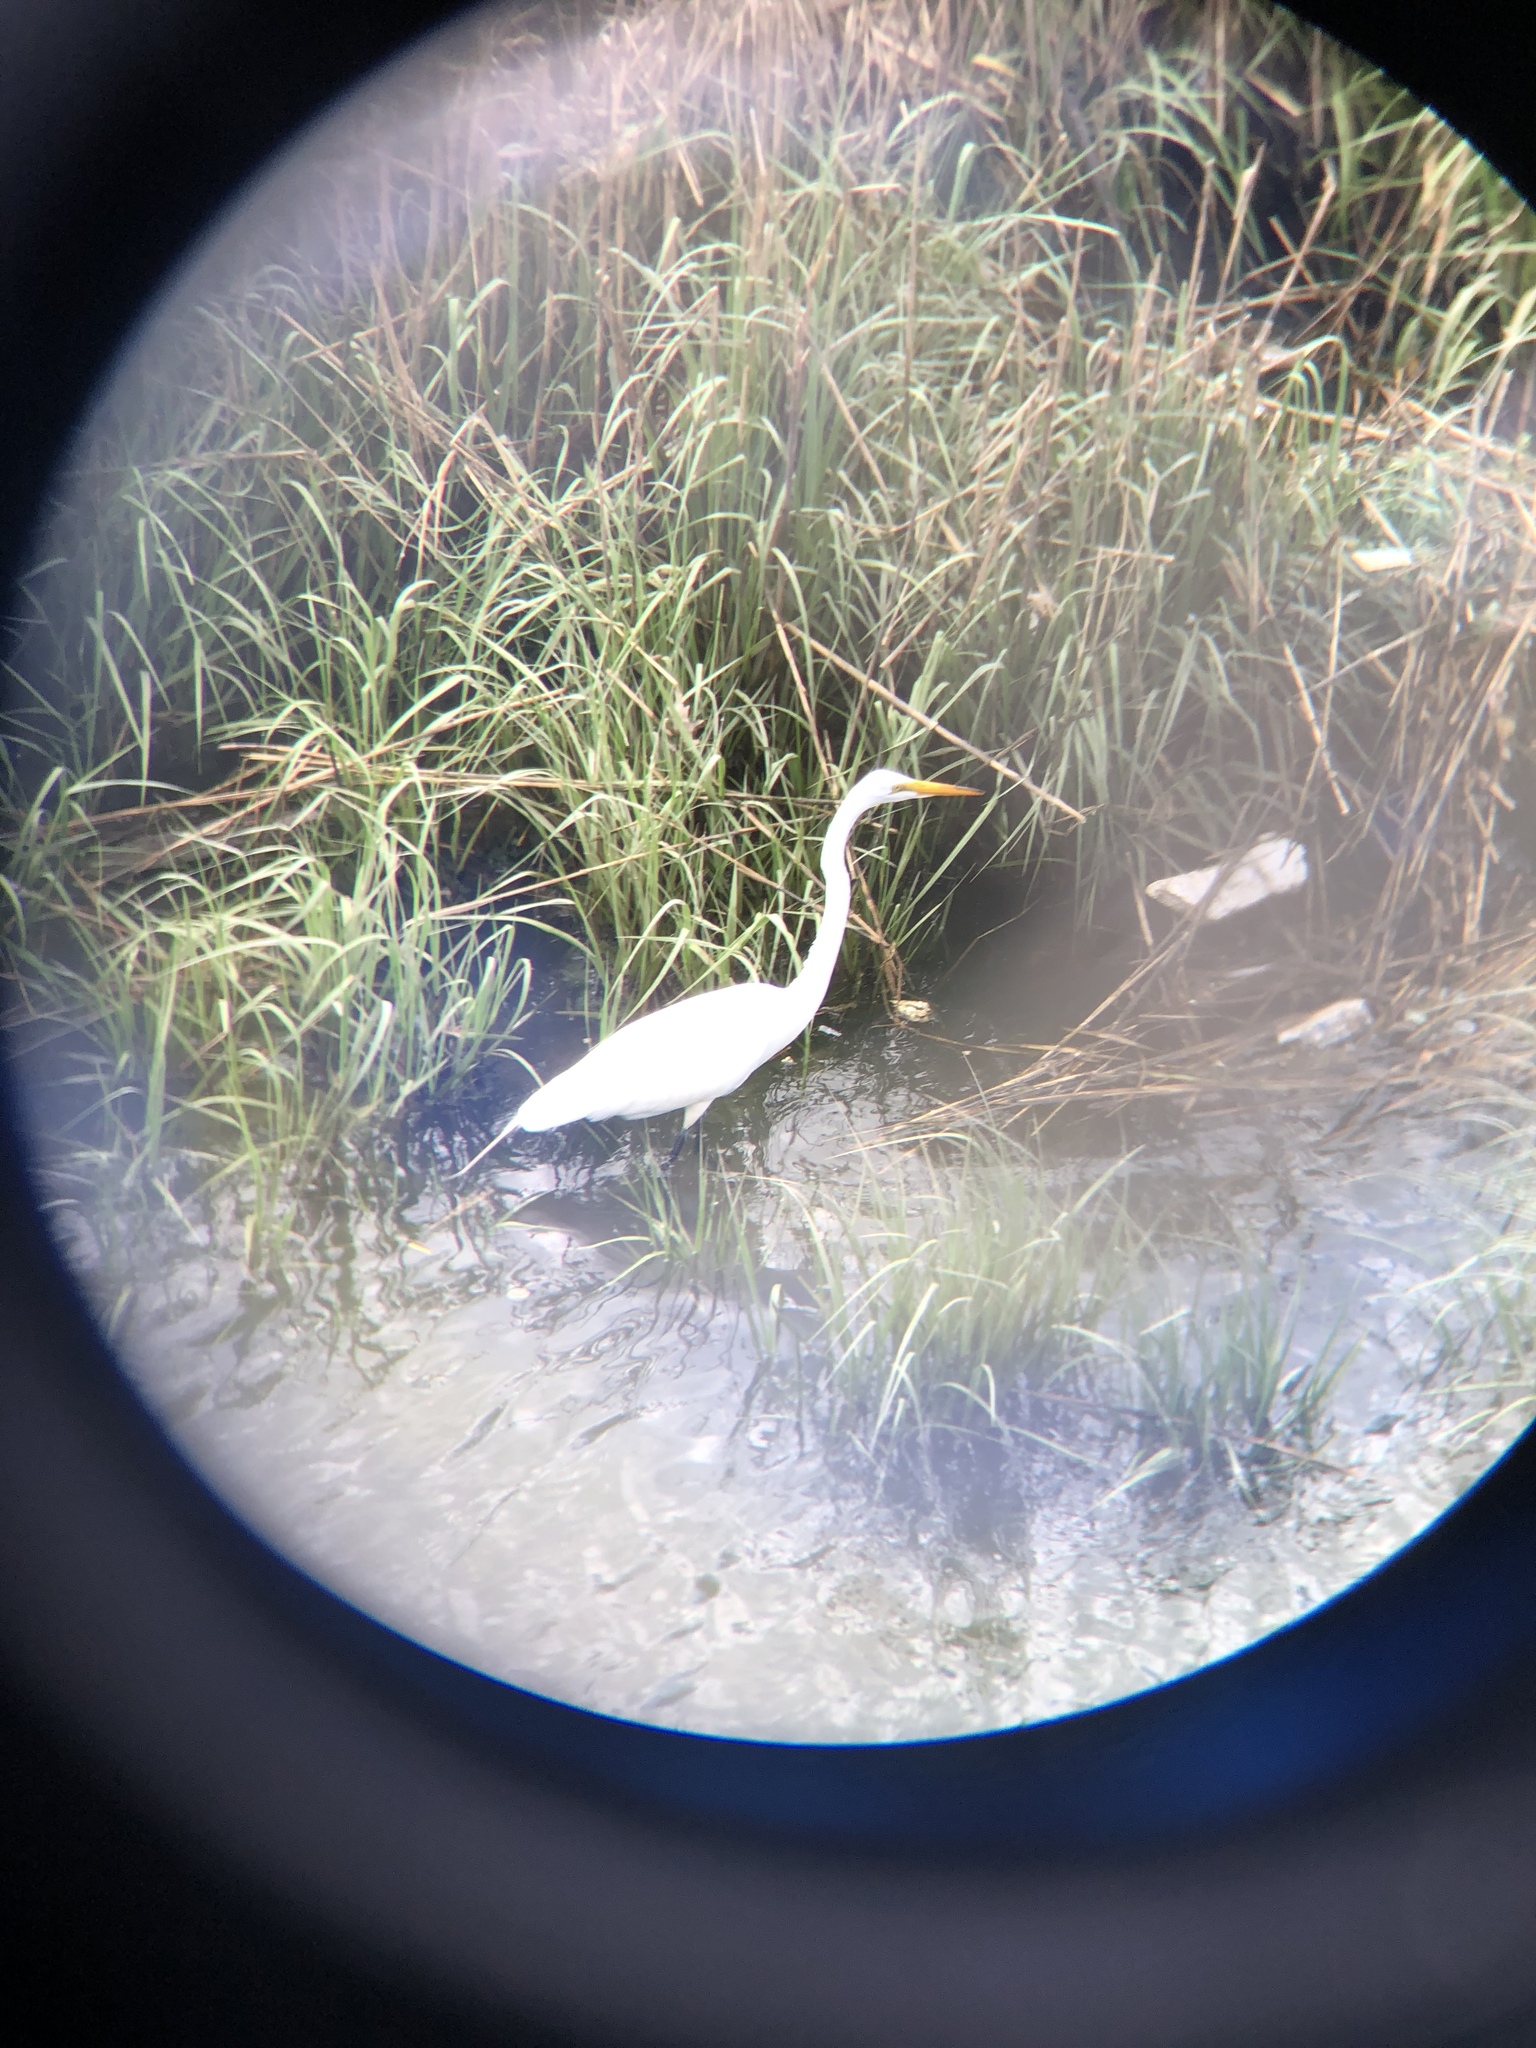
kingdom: Animalia
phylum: Chordata
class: Aves
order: Pelecaniformes
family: Ardeidae
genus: Ardea
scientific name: Ardea alba
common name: Great egret
